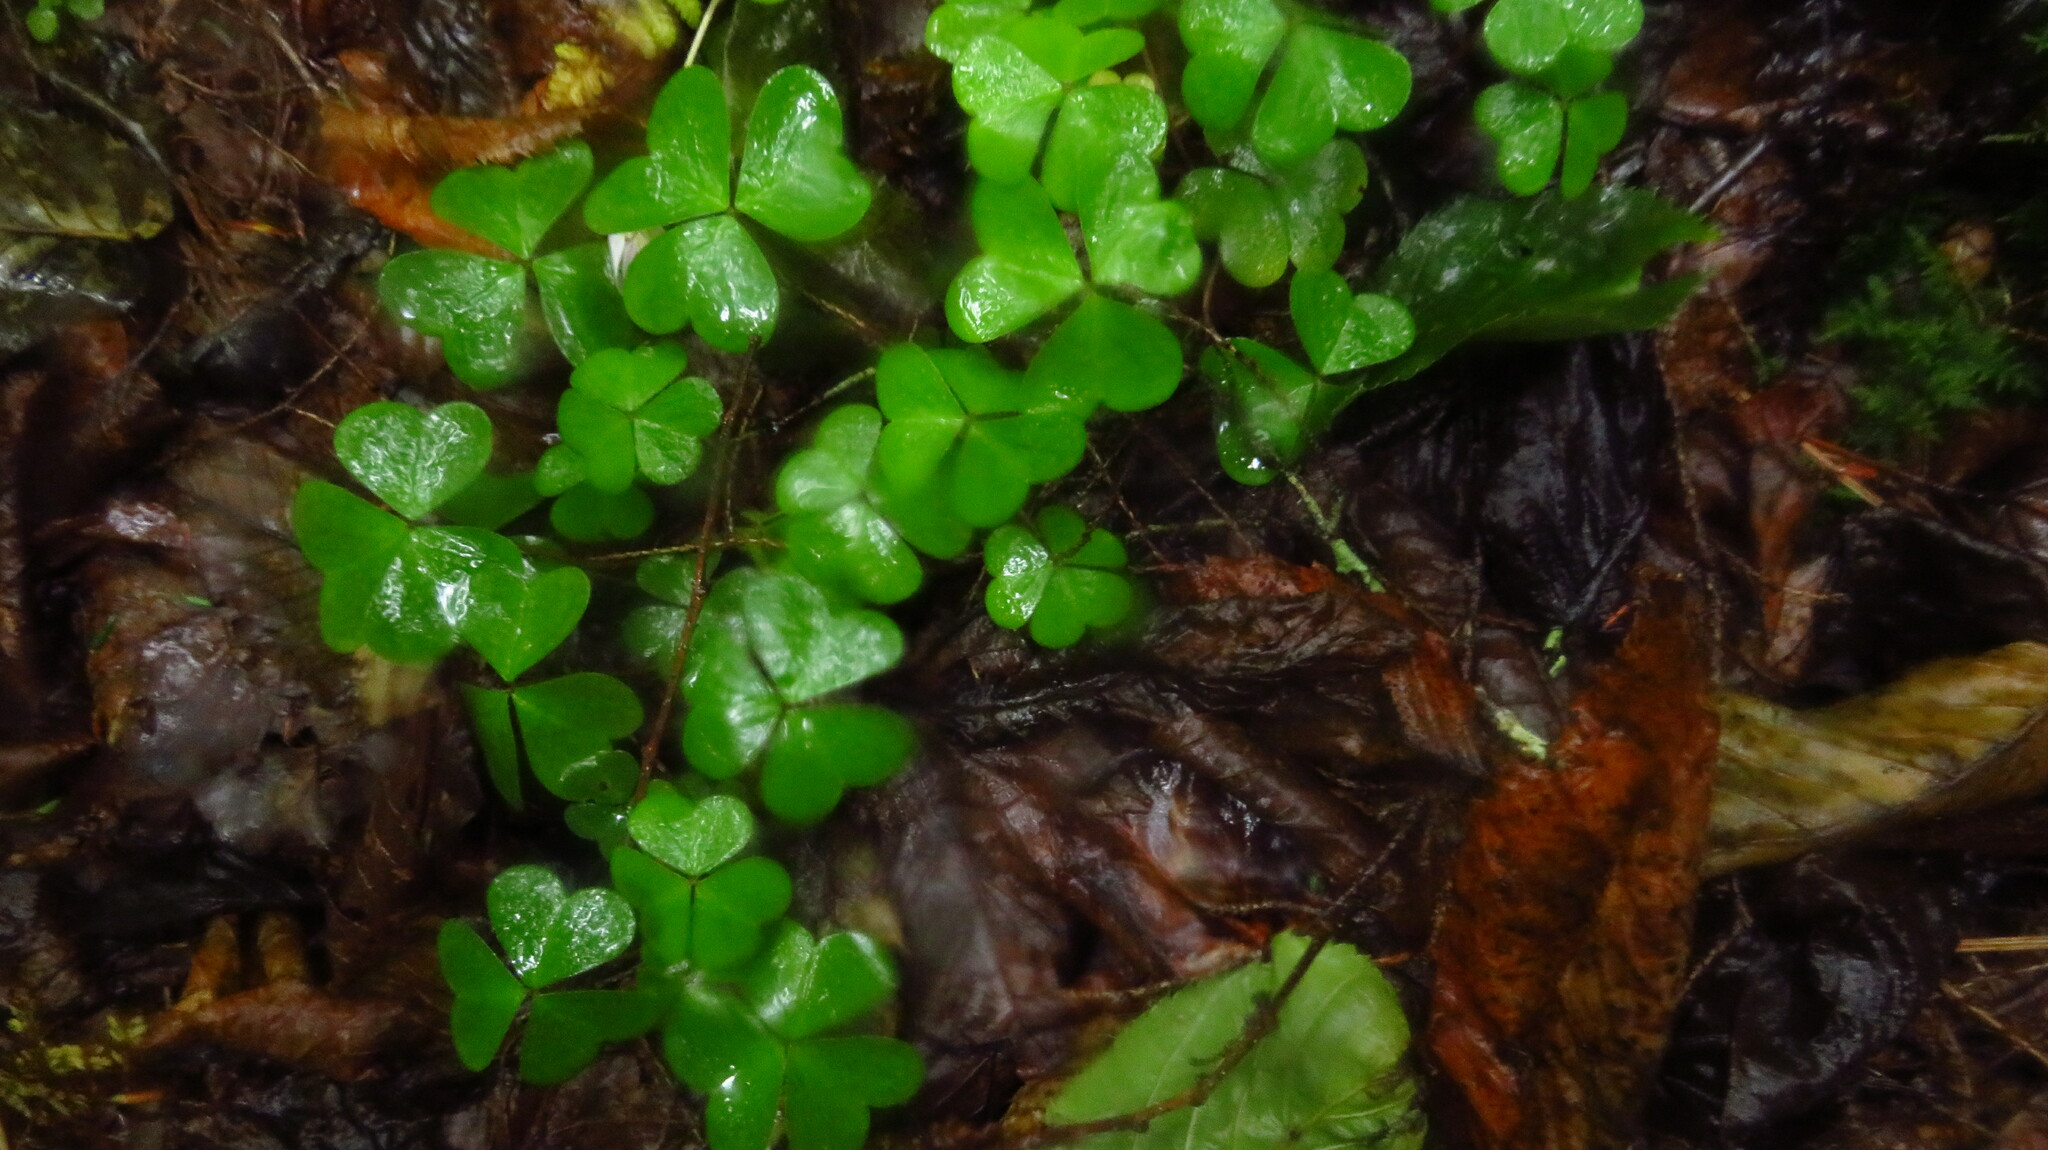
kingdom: Plantae
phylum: Tracheophyta
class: Magnoliopsida
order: Oxalidales
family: Oxalidaceae
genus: Oxalis
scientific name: Oxalis montana
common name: American wood-sorrel
